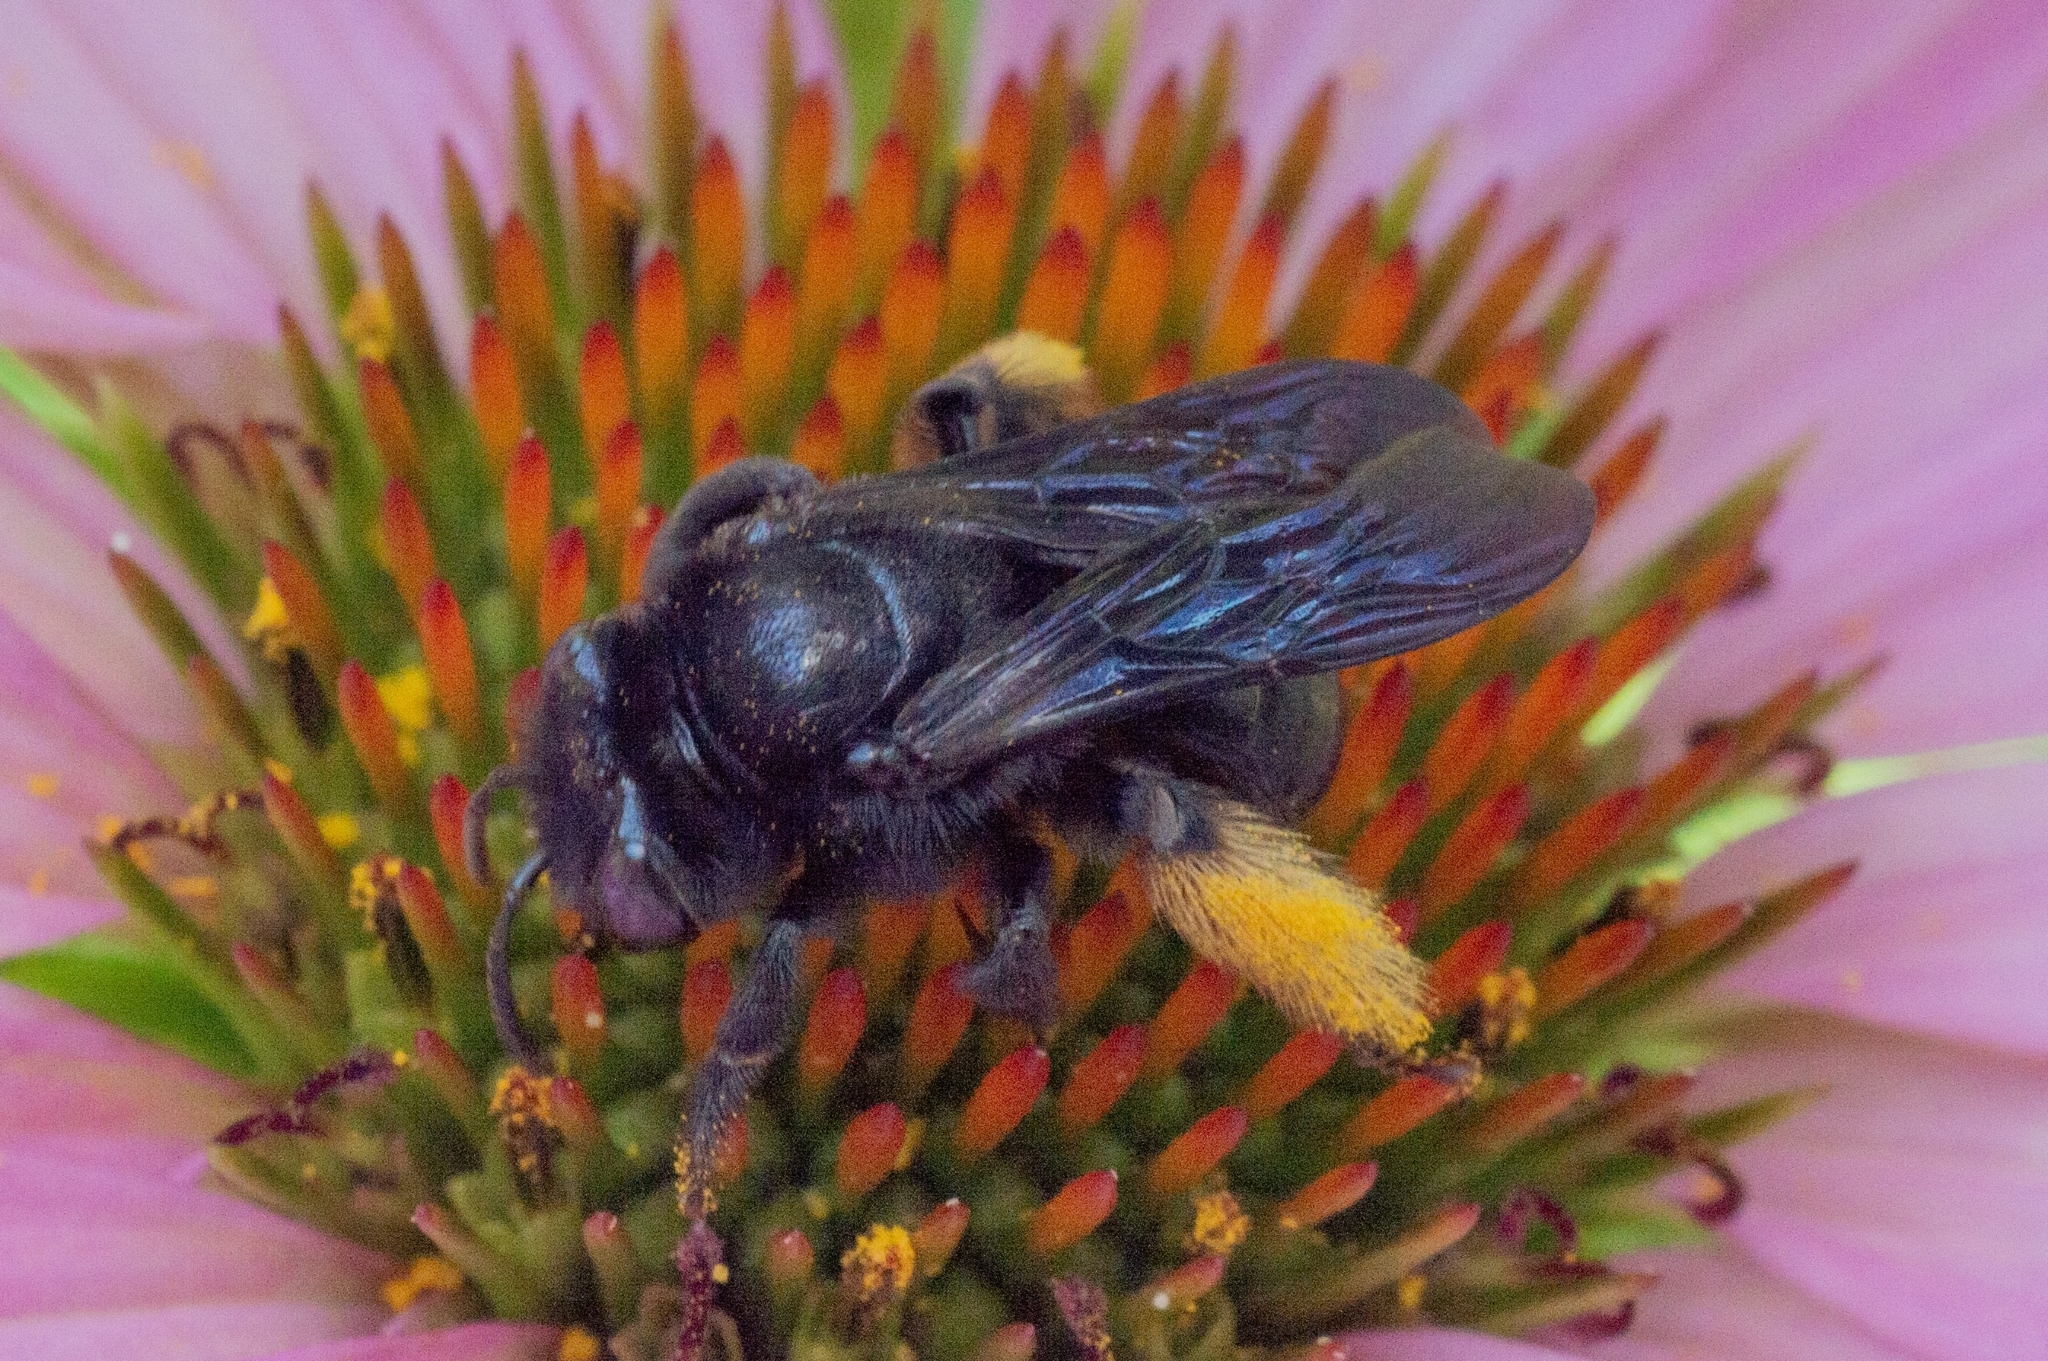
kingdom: Animalia
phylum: Arthropoda
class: Insecta
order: Hymenoptera
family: Apidae
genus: Melissodes
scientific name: Melissodes bimaculatus
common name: Two-spotted long-horned bee
